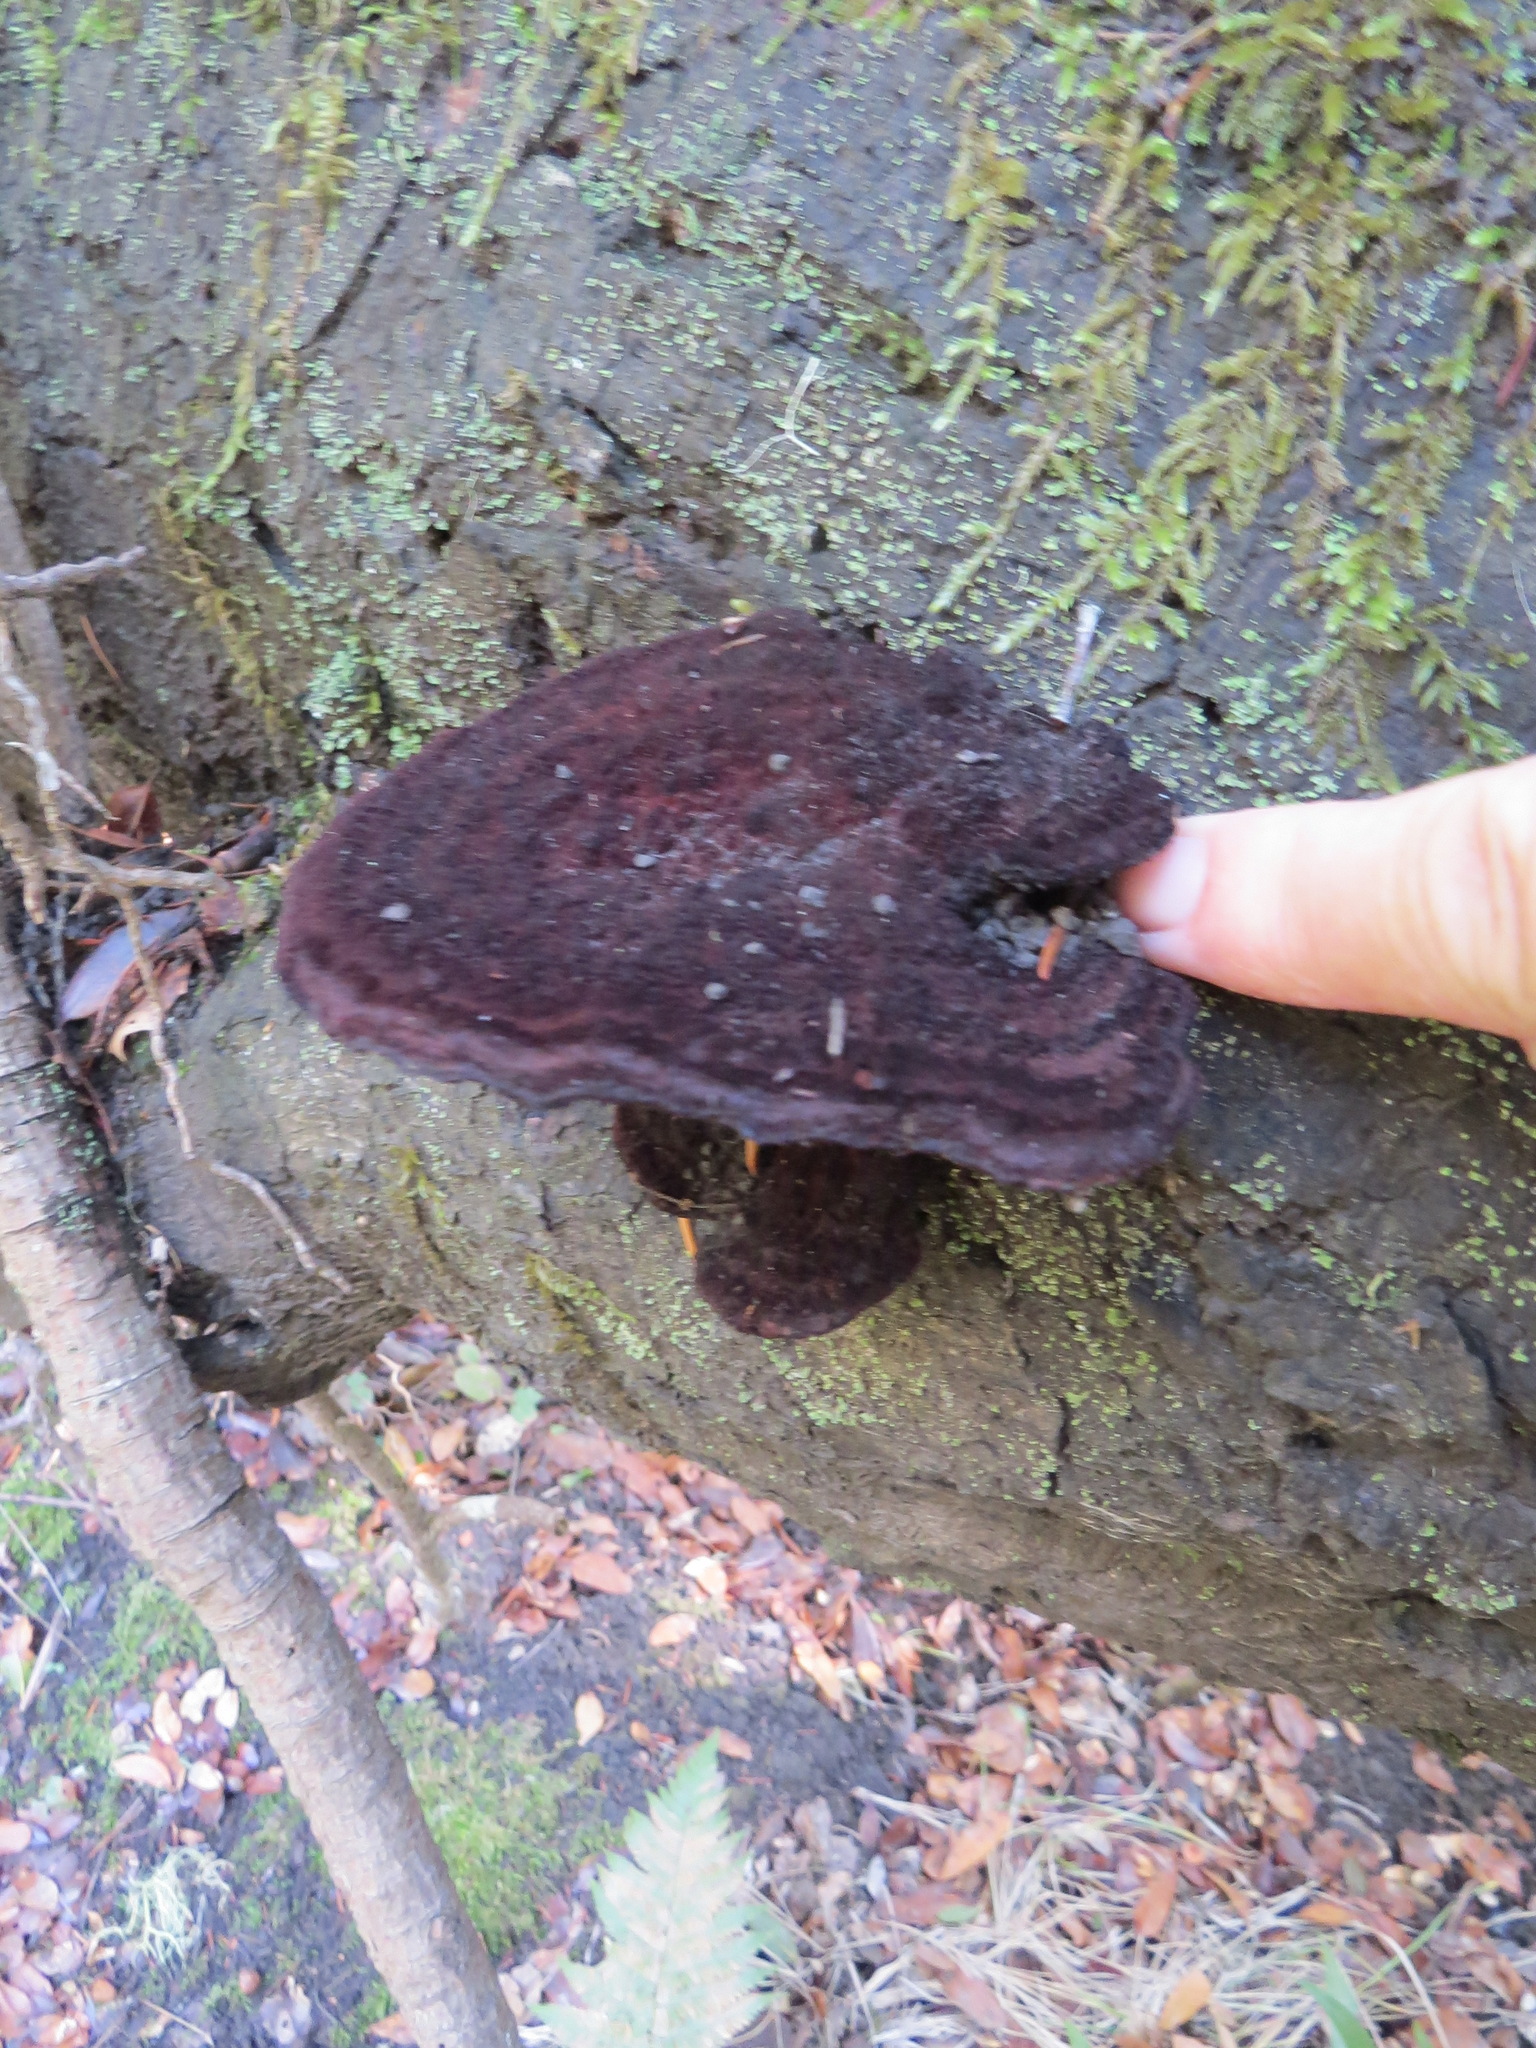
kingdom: Fungi
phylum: Basidiomycota
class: Agaricomycetes
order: Polyporales
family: Laetiporaceae
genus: Phaeolus
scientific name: Phaeolus schweinitzii
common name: Dyer's mazegill
